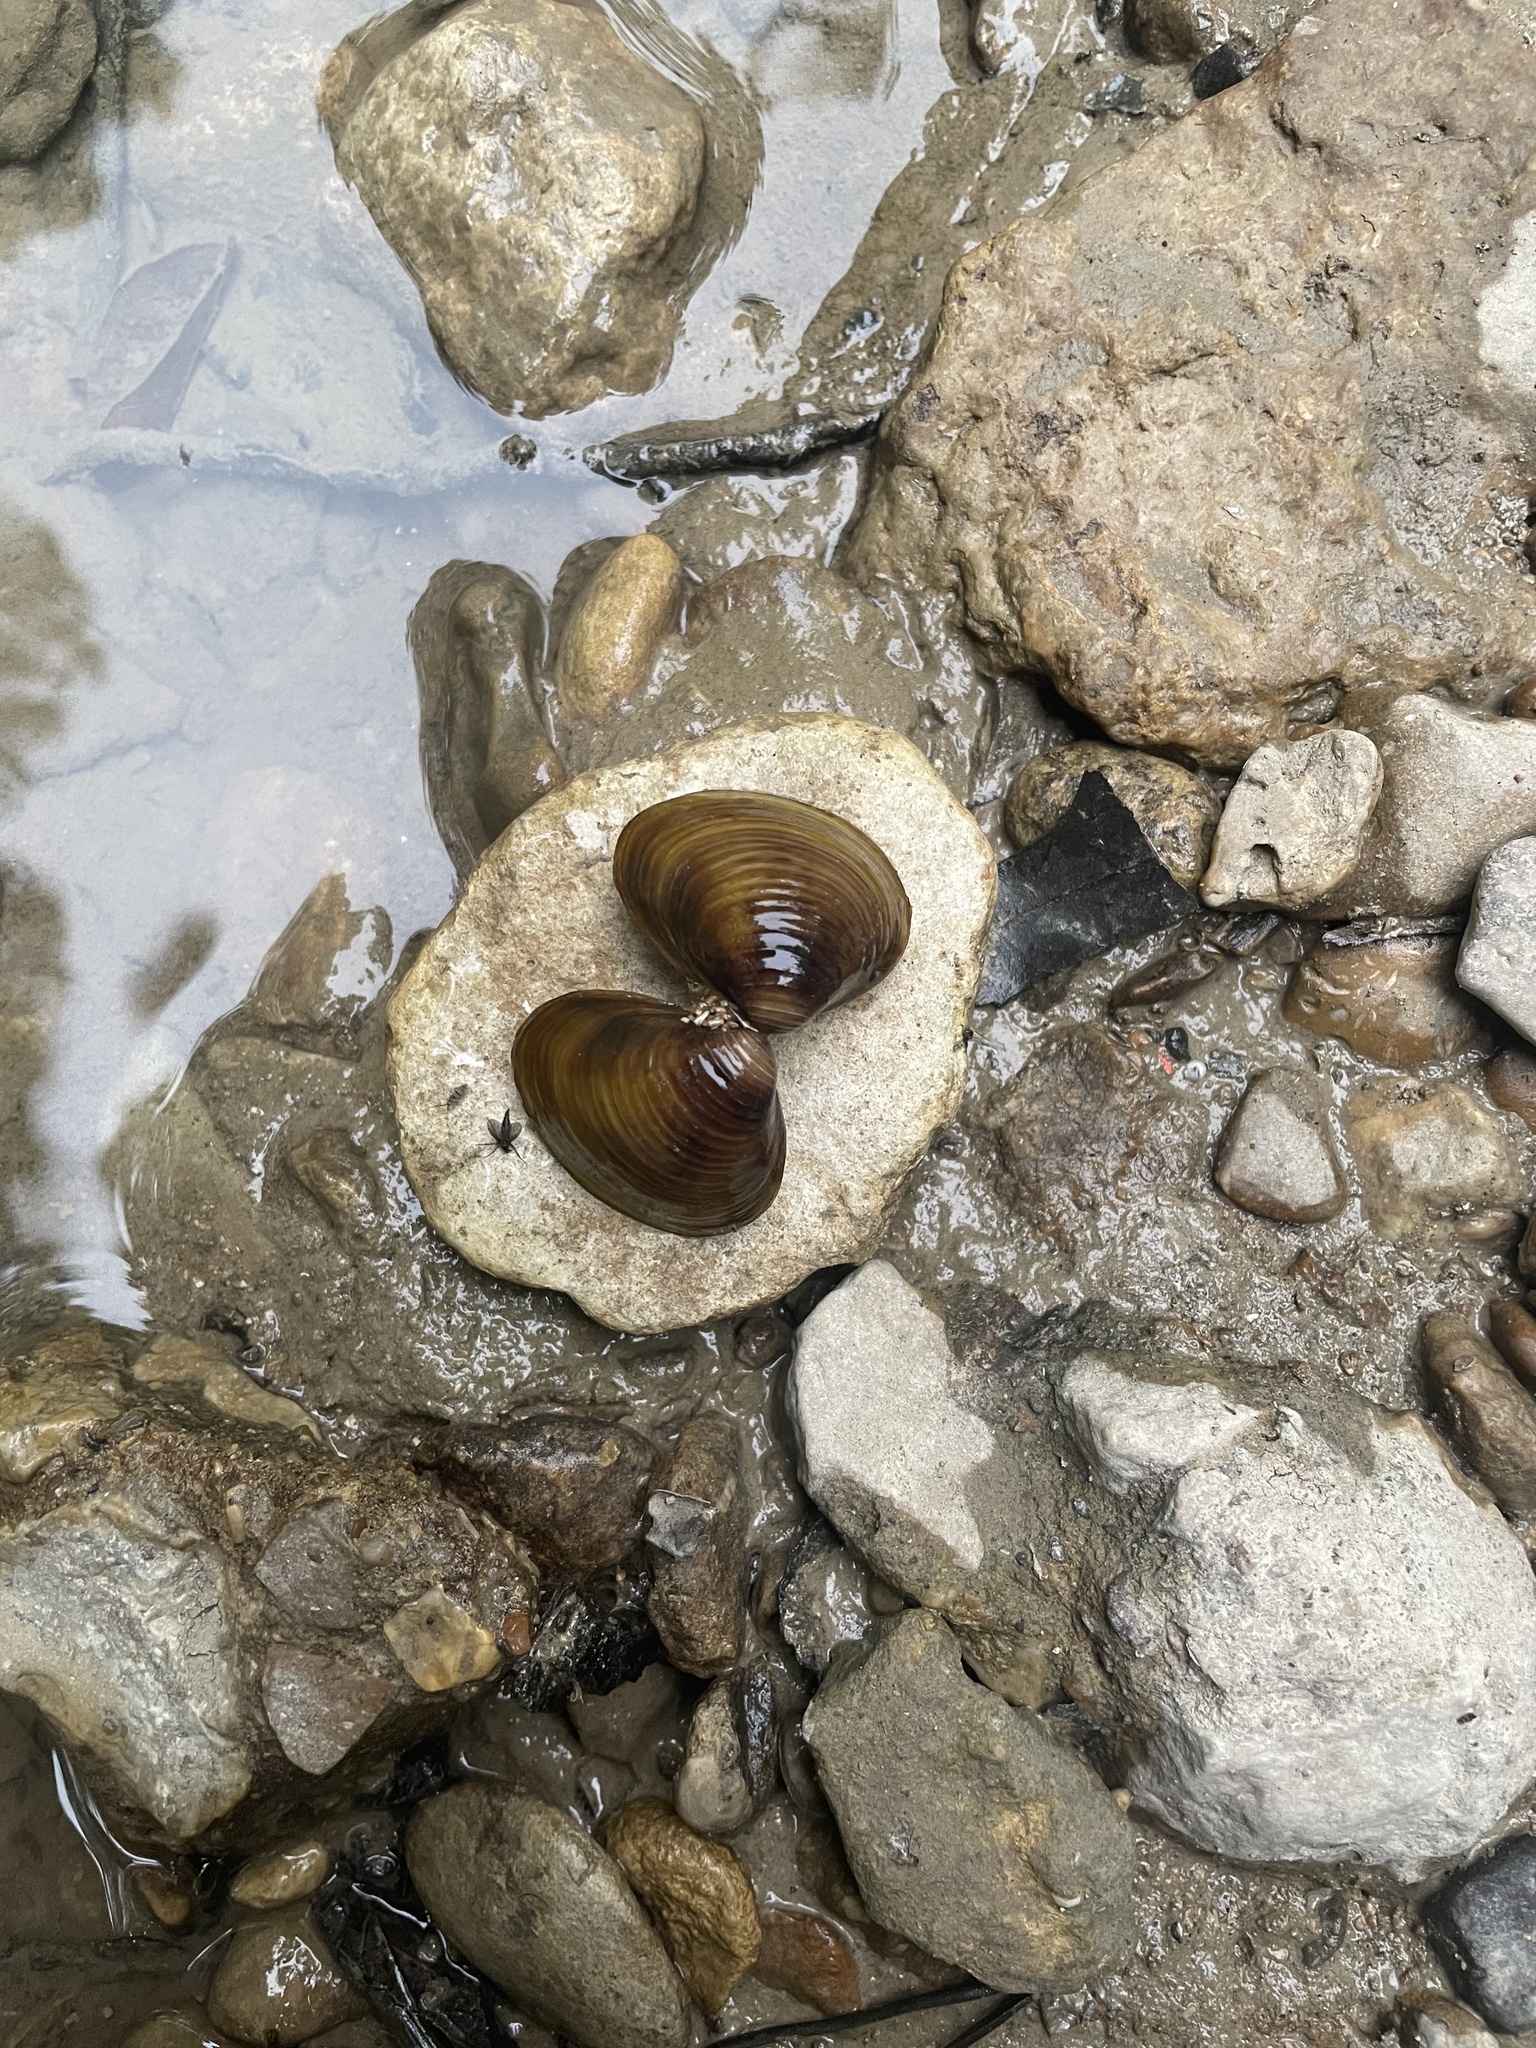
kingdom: Animalia
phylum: Mollusca
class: Bivalvia
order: Venerida
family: Cyrenidae
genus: Corbicula
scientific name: Corbicula fluminea
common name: Asian clam
